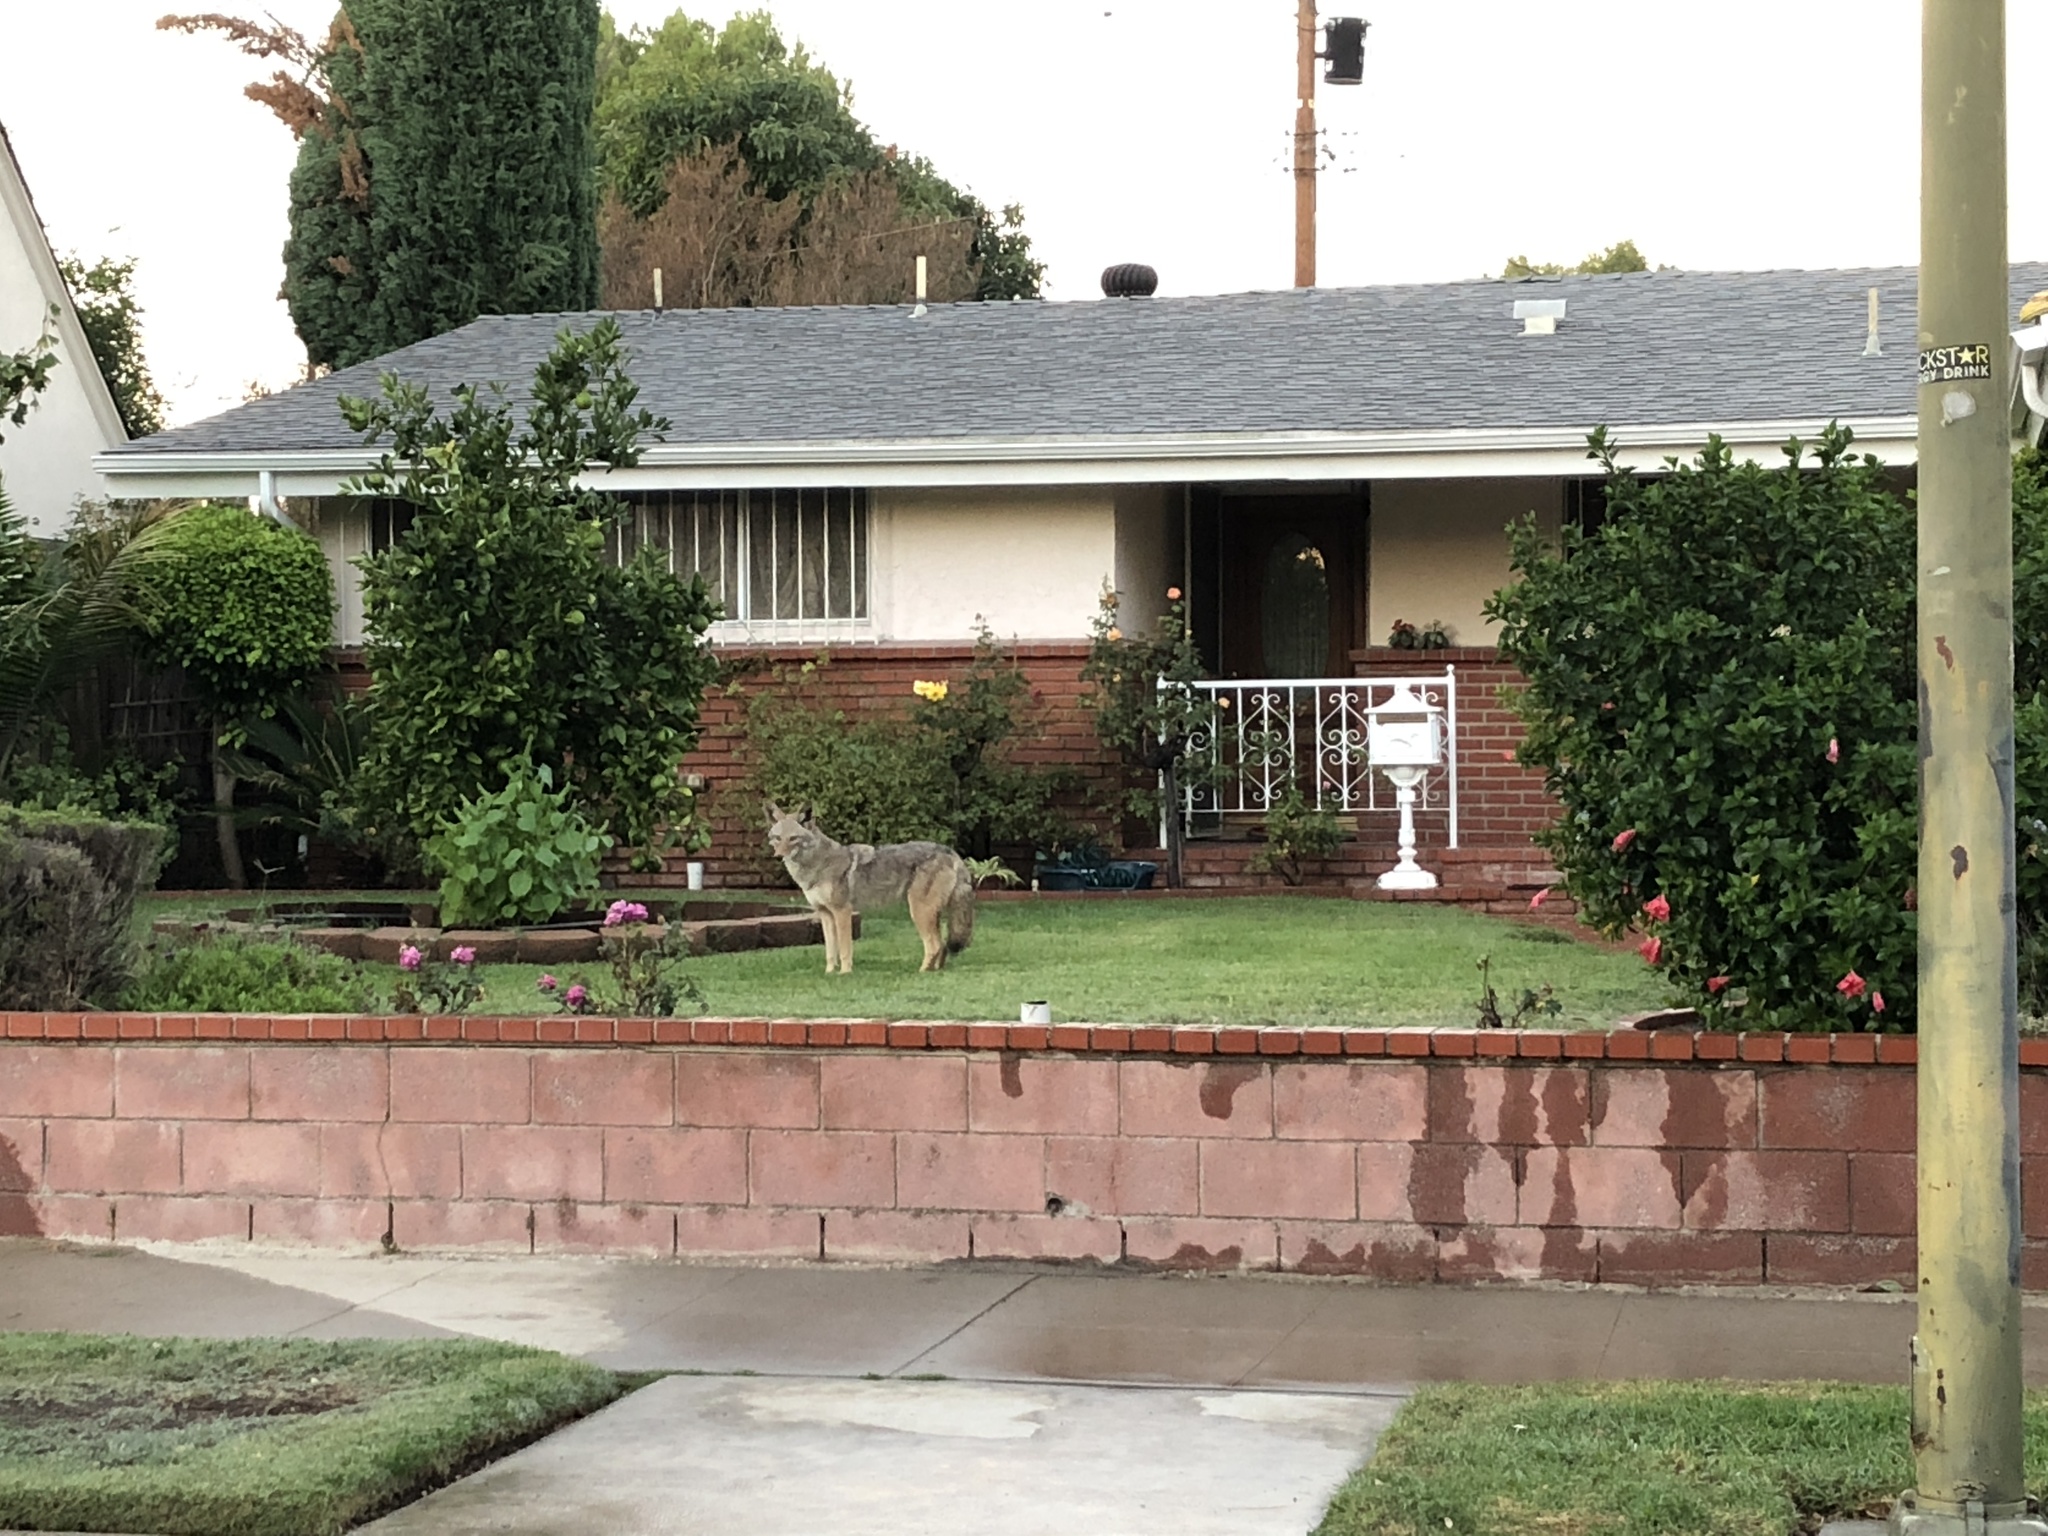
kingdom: Animalia
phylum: Chordata
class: Mammalia
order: Carnivora
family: Canidae
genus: Canis
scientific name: Canis latrans
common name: Coyote
